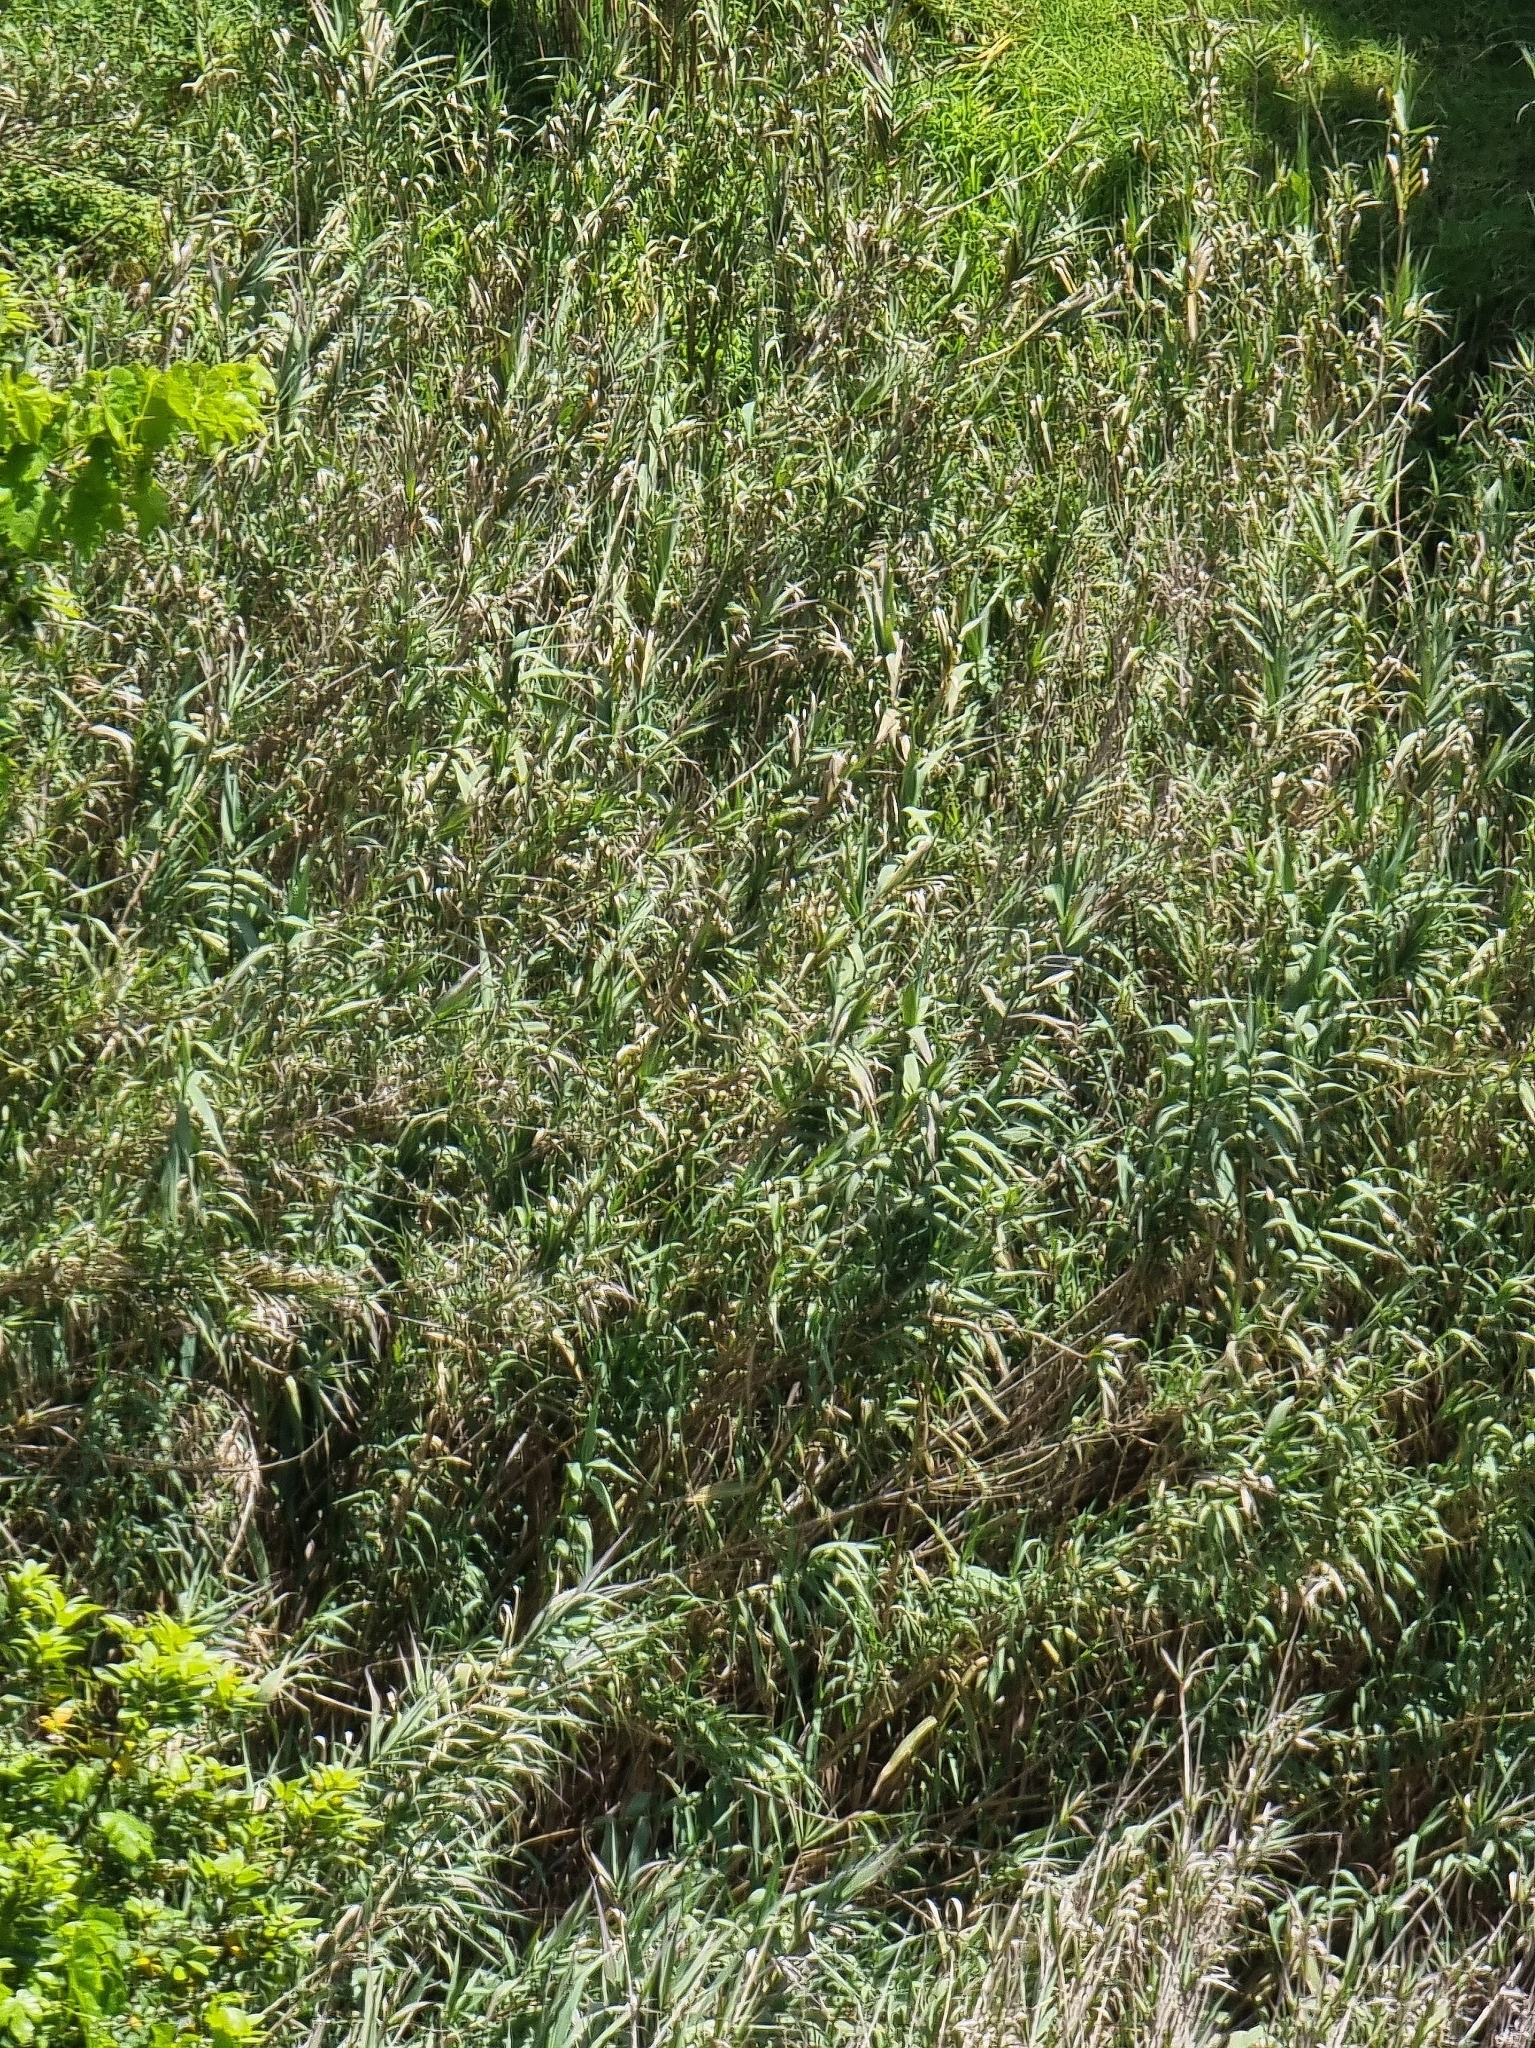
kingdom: Plantae
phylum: Tracheophyta
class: Liliopsida
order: Poales
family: Poaceae
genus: Arundo
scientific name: Arundo donax
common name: Giant reed
